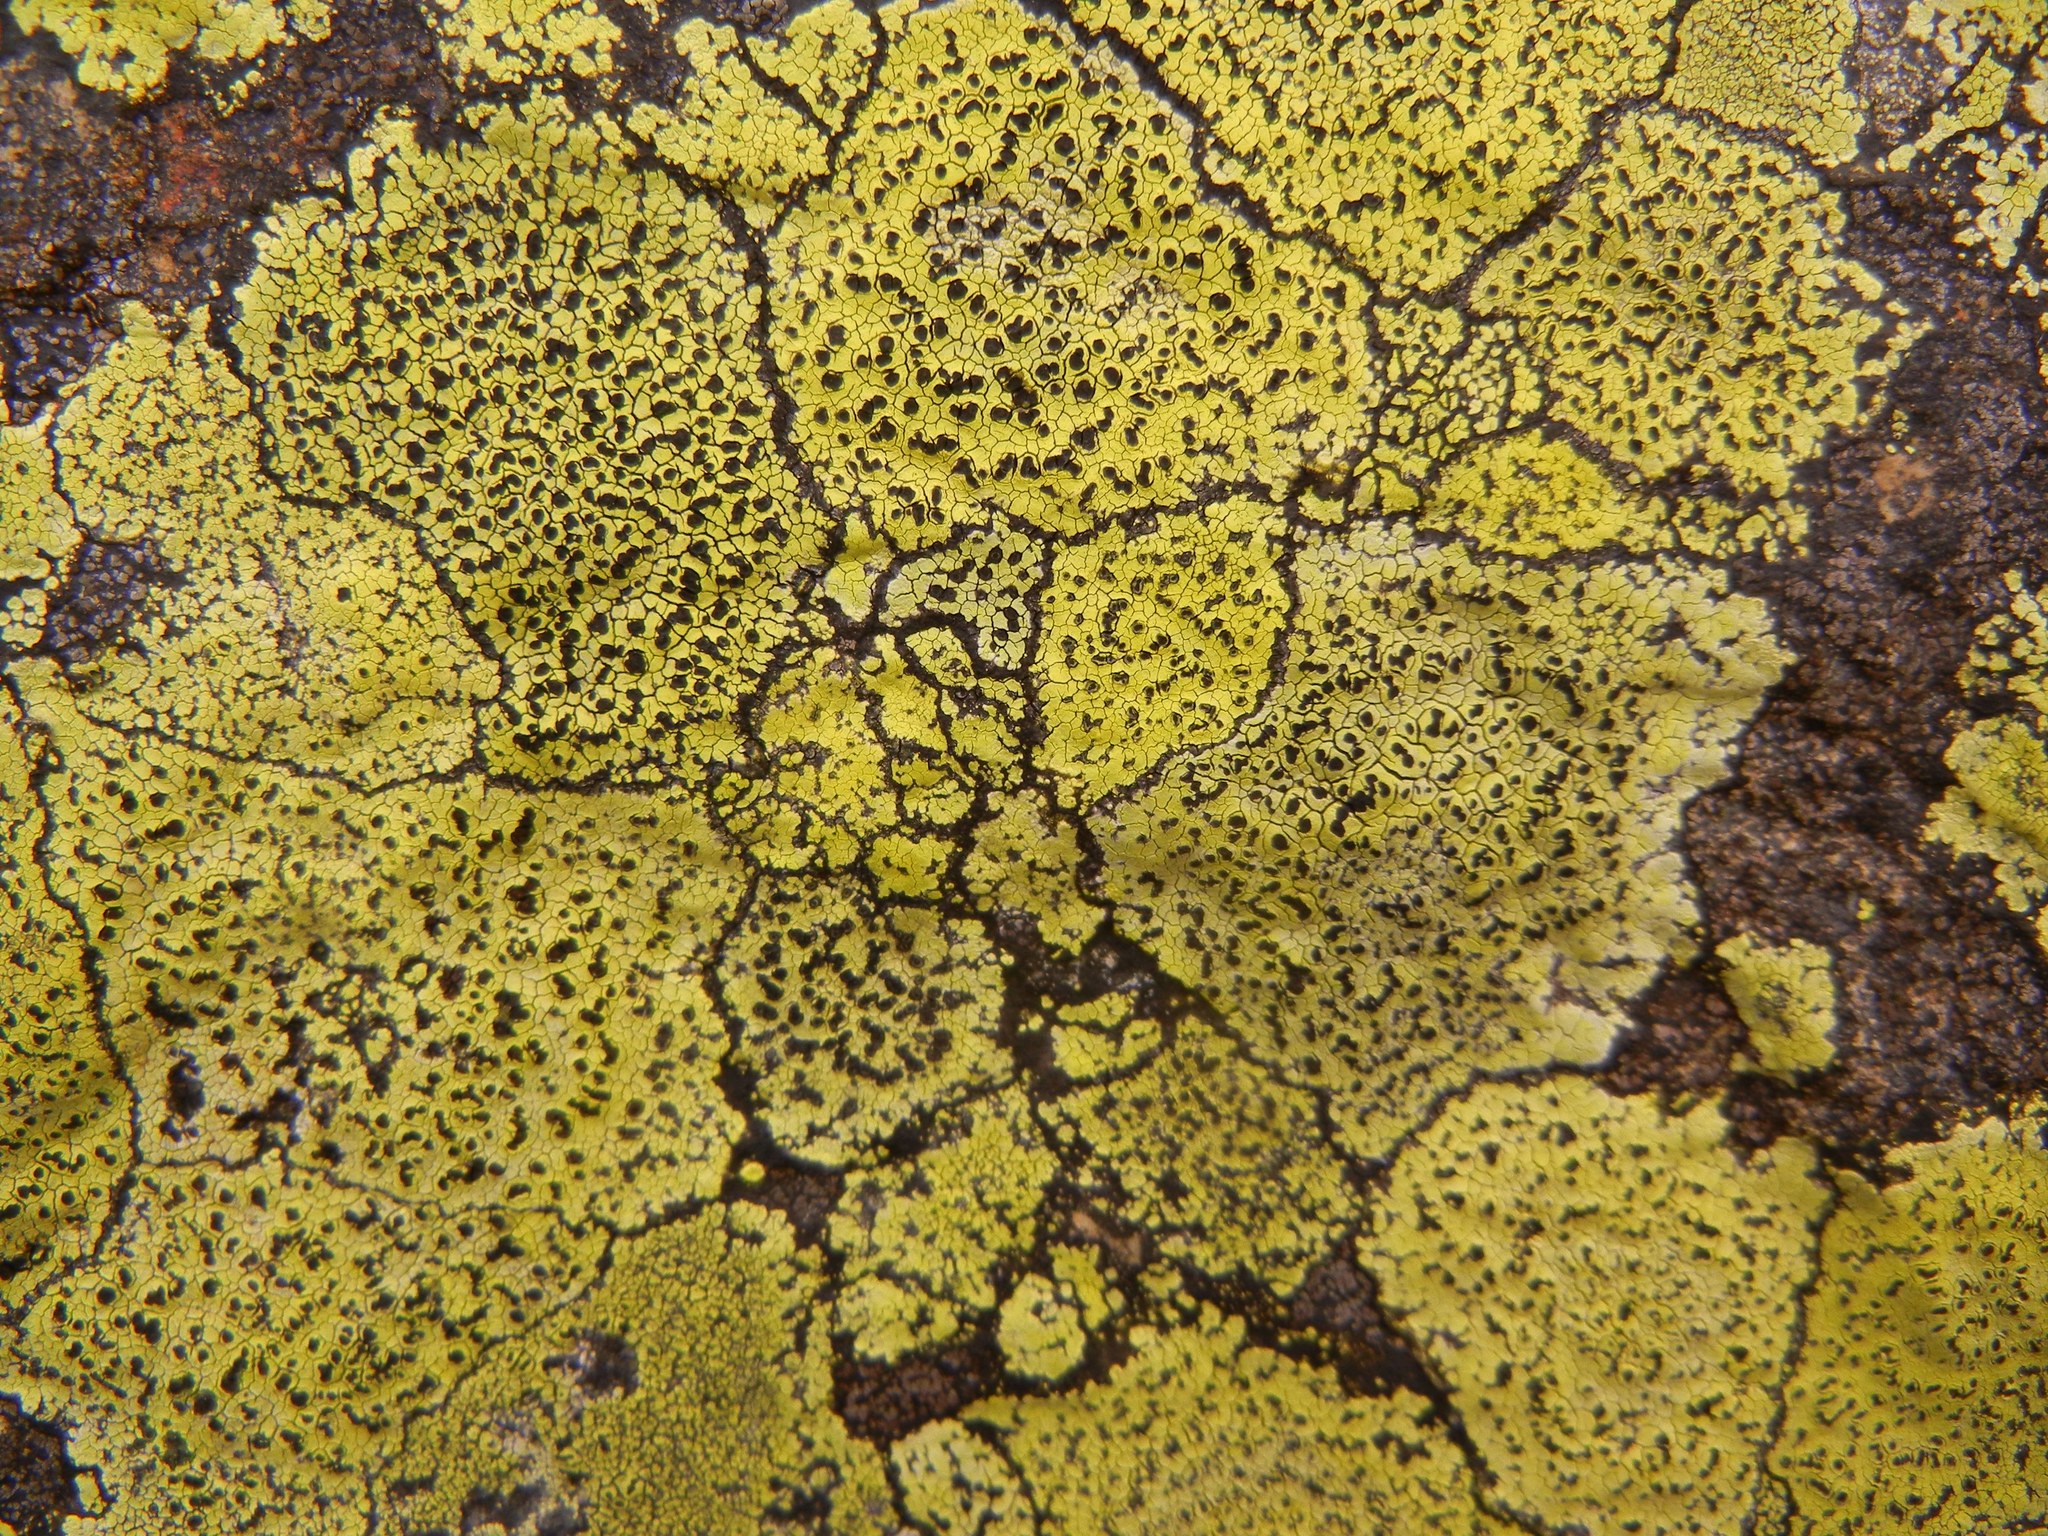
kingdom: Fungi
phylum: Ascomycota
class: Lecanoromycetes
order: Rhizocarpales
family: Rhizocarpaceae
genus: Rhizocarpon
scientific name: Rhizocarpon geographicum
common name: Yellow map lichen
